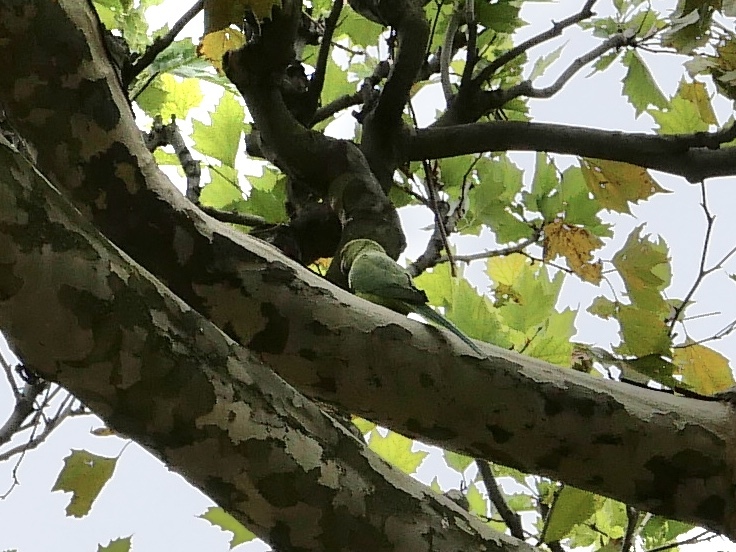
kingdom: Animalia
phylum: Chordata
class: Aves
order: Psittaciformes
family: Psittacidae
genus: Psittacula
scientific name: Psittacula krameri
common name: Rose-ringed parakeet
